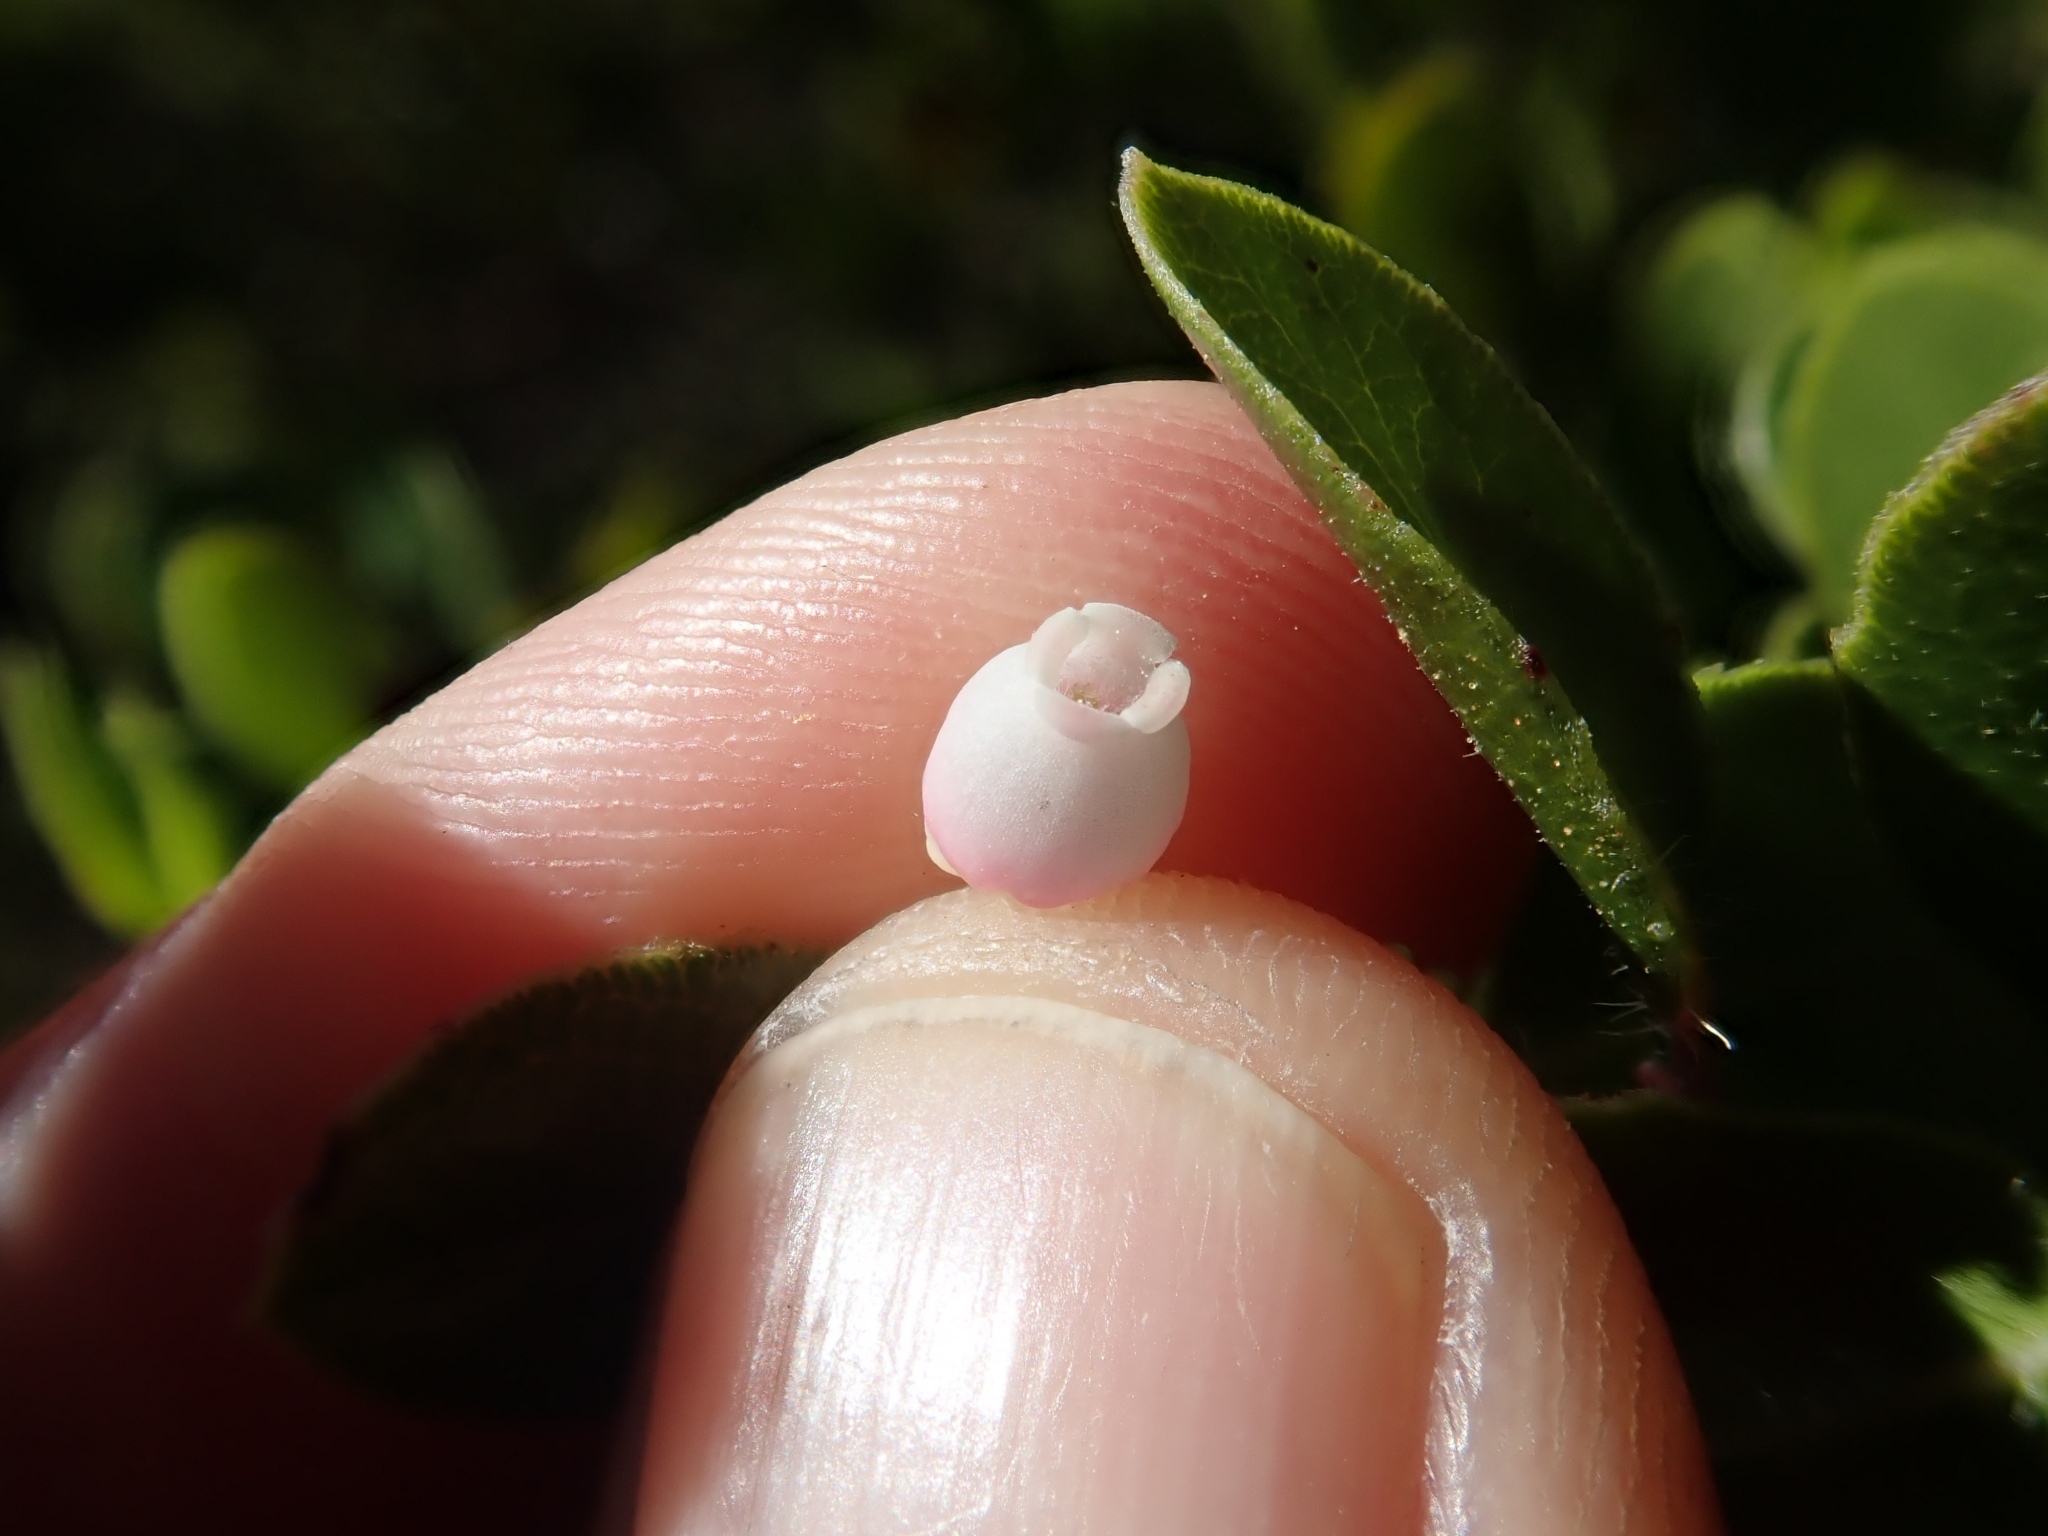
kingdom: Plantae
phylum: Tracheophyta
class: Magnoliopsida
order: Ericales
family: Ericaceae
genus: Arctostaphylos
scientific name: Arctostaphylos nummularia
